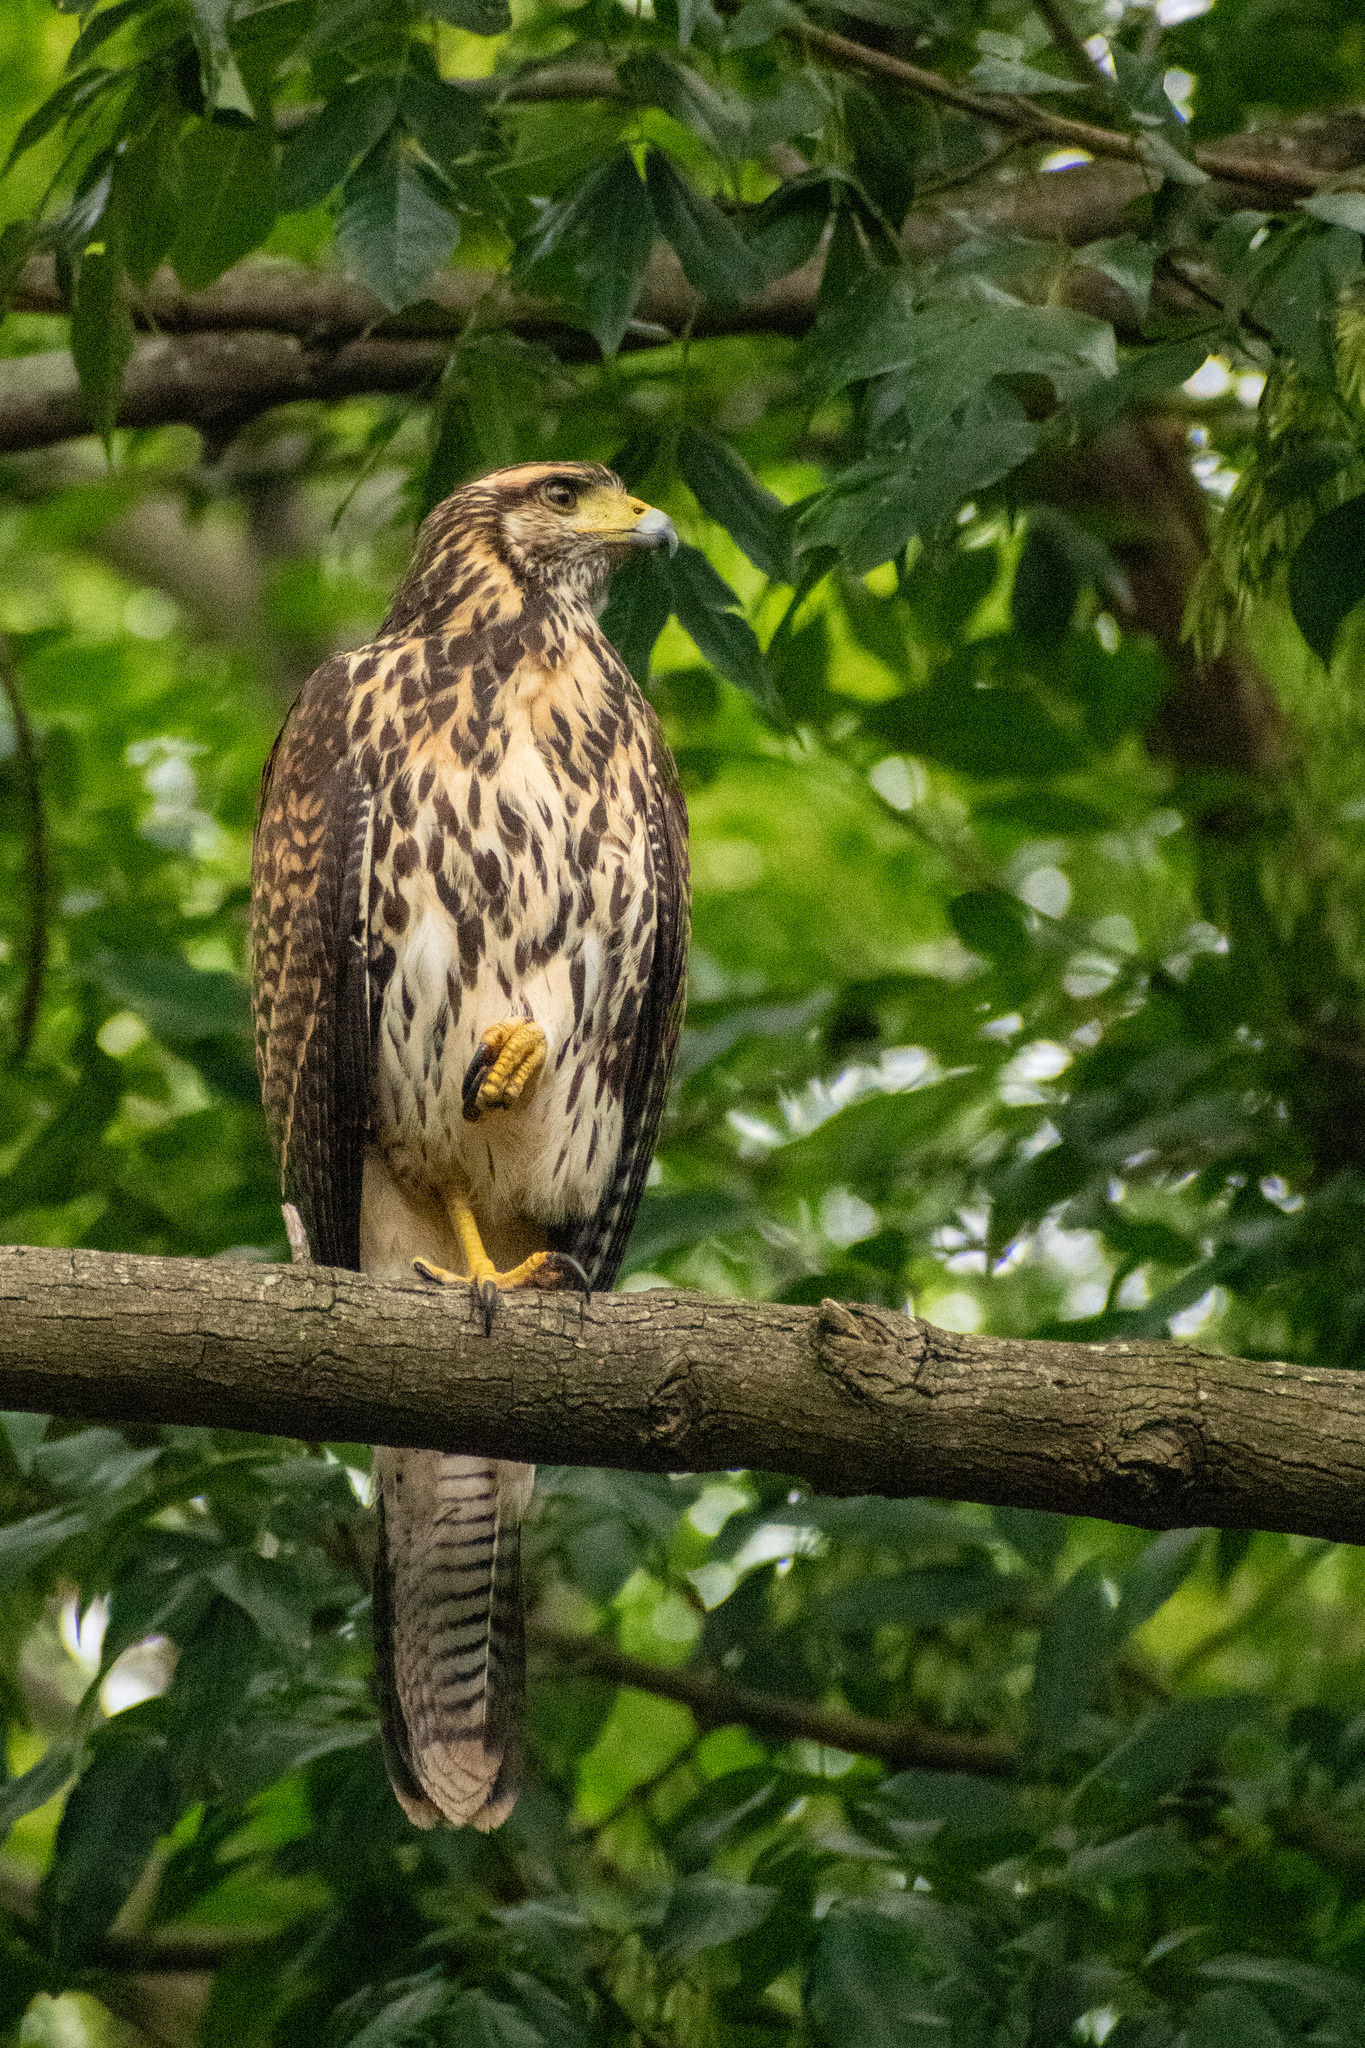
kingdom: Animalia
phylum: Chordata
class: Aves
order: Accipitriformes
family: Accipitridae
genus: Parabuteo
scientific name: Parabuteo unicinctus
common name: Harris's hawk
